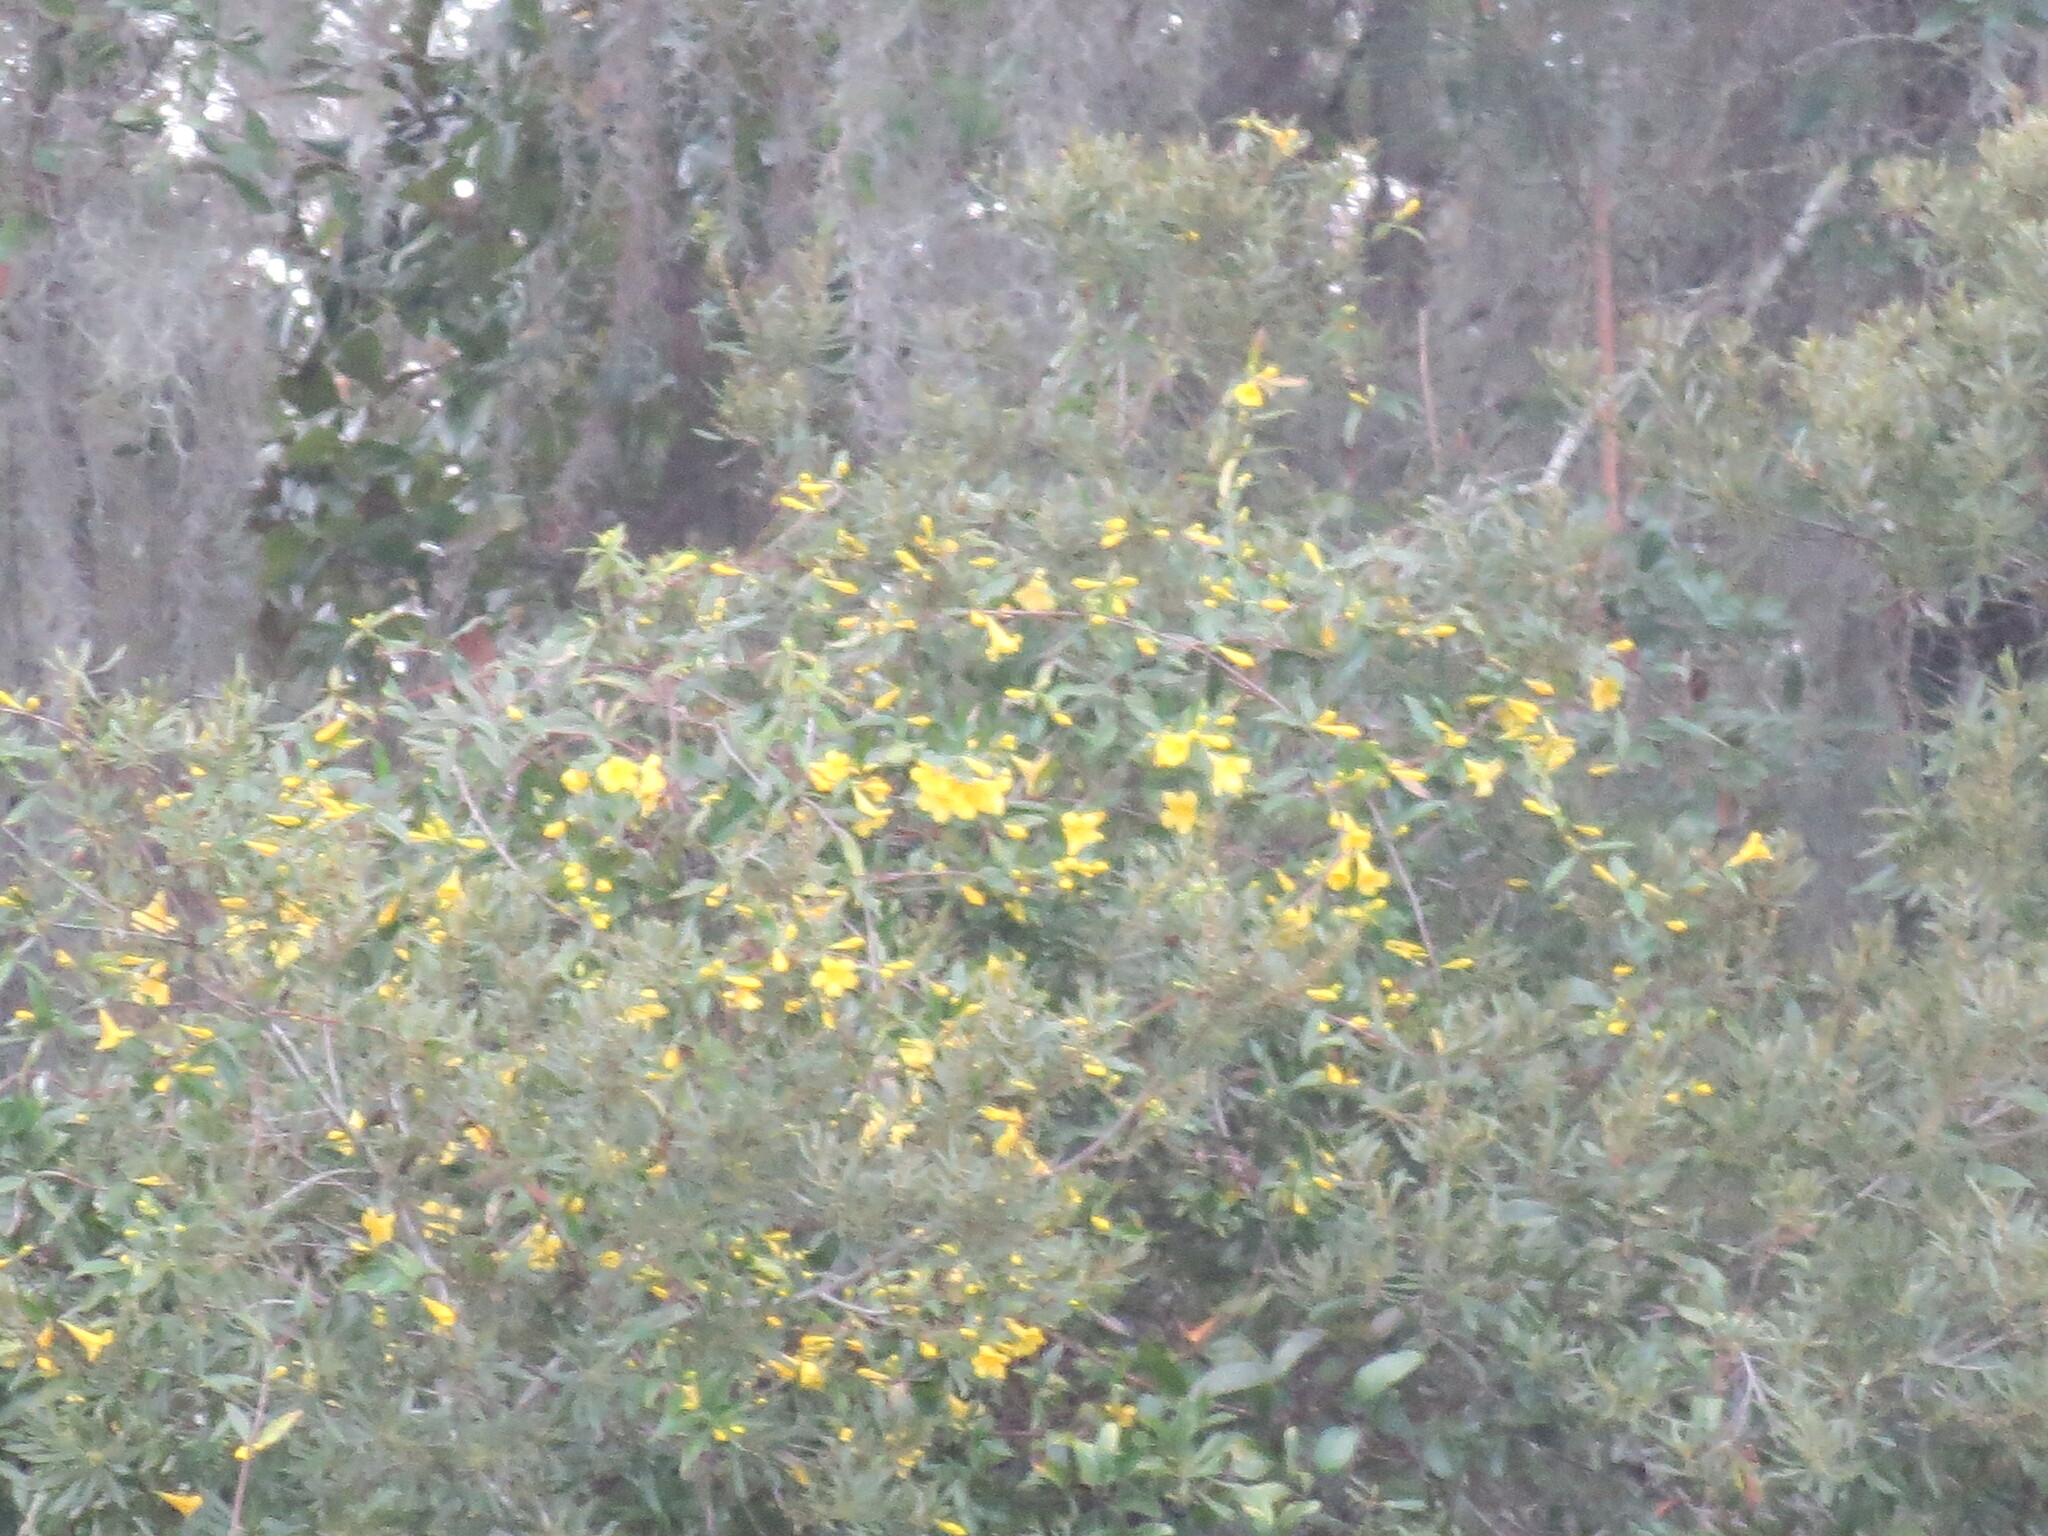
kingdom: Plantae
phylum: Tracheophyta
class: Magnoliopsida
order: Gentianales
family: Gelsemiaceae
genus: Gelsemium
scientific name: Gelsemium sempervirens
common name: Carolina-jasmine
